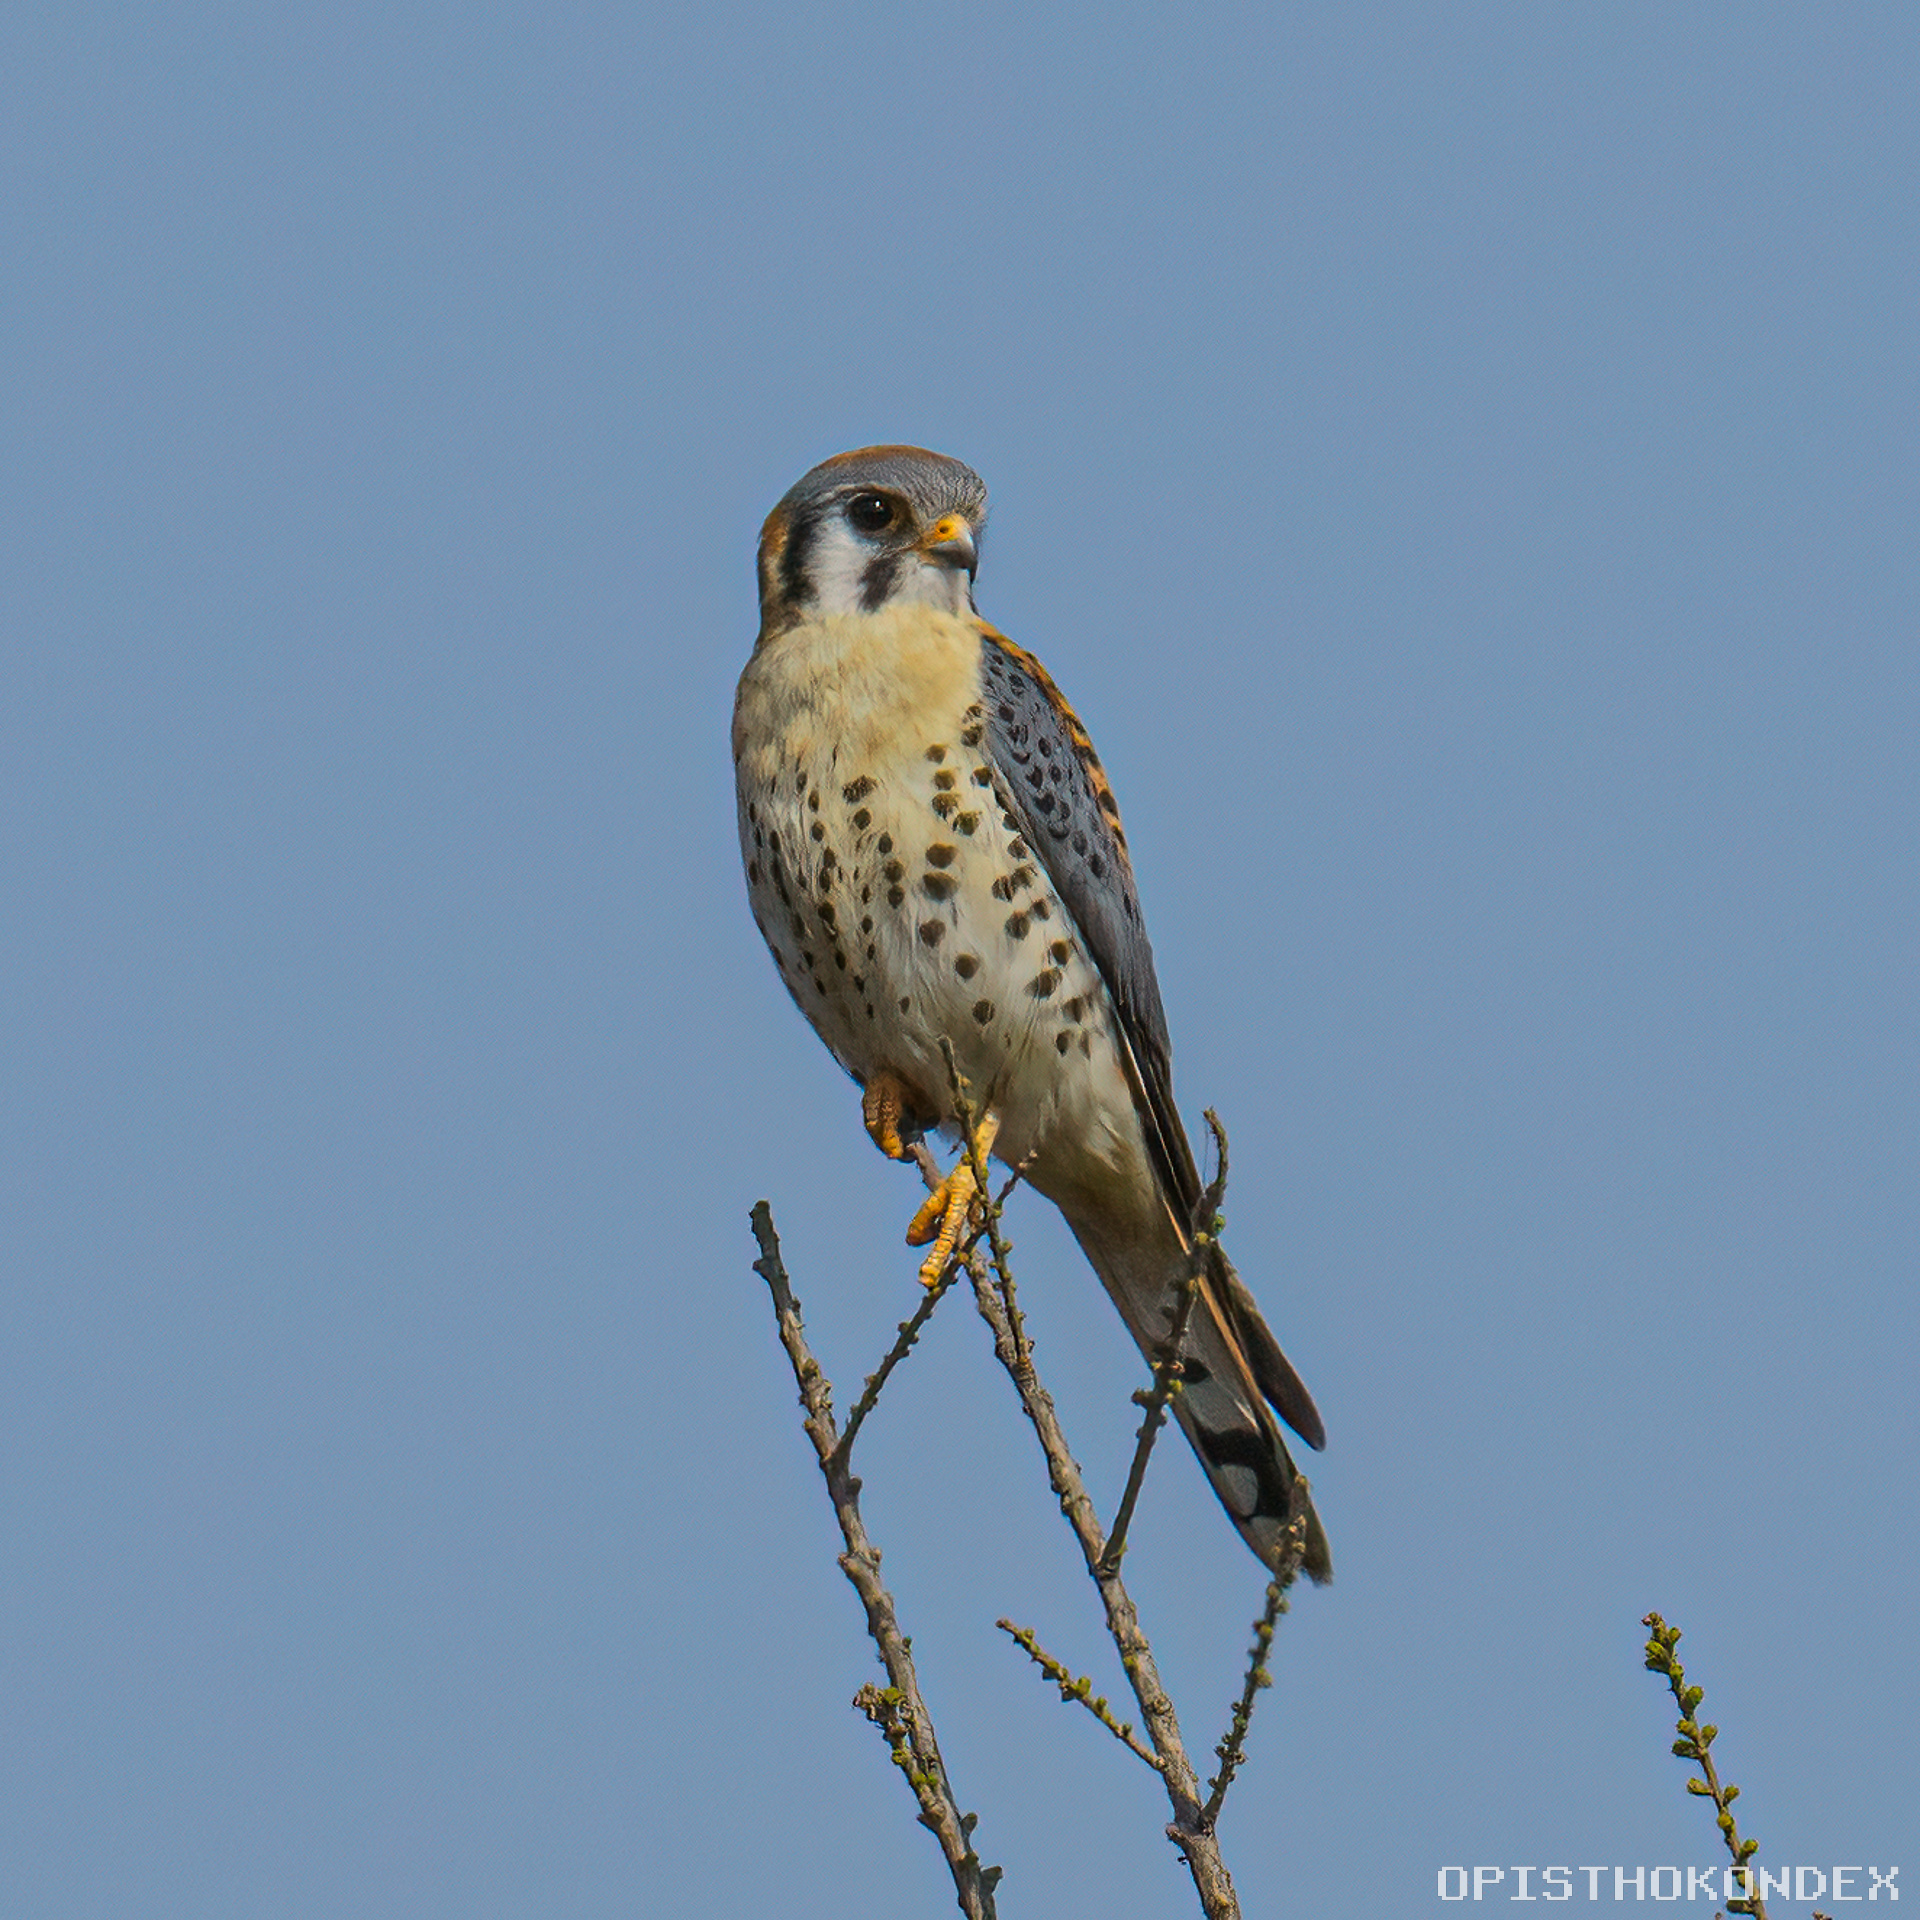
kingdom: Animalia
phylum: Chordata
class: Aves
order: Falconiformes
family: Falconidae
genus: Falco
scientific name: Falco sparverius
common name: American kestrel
